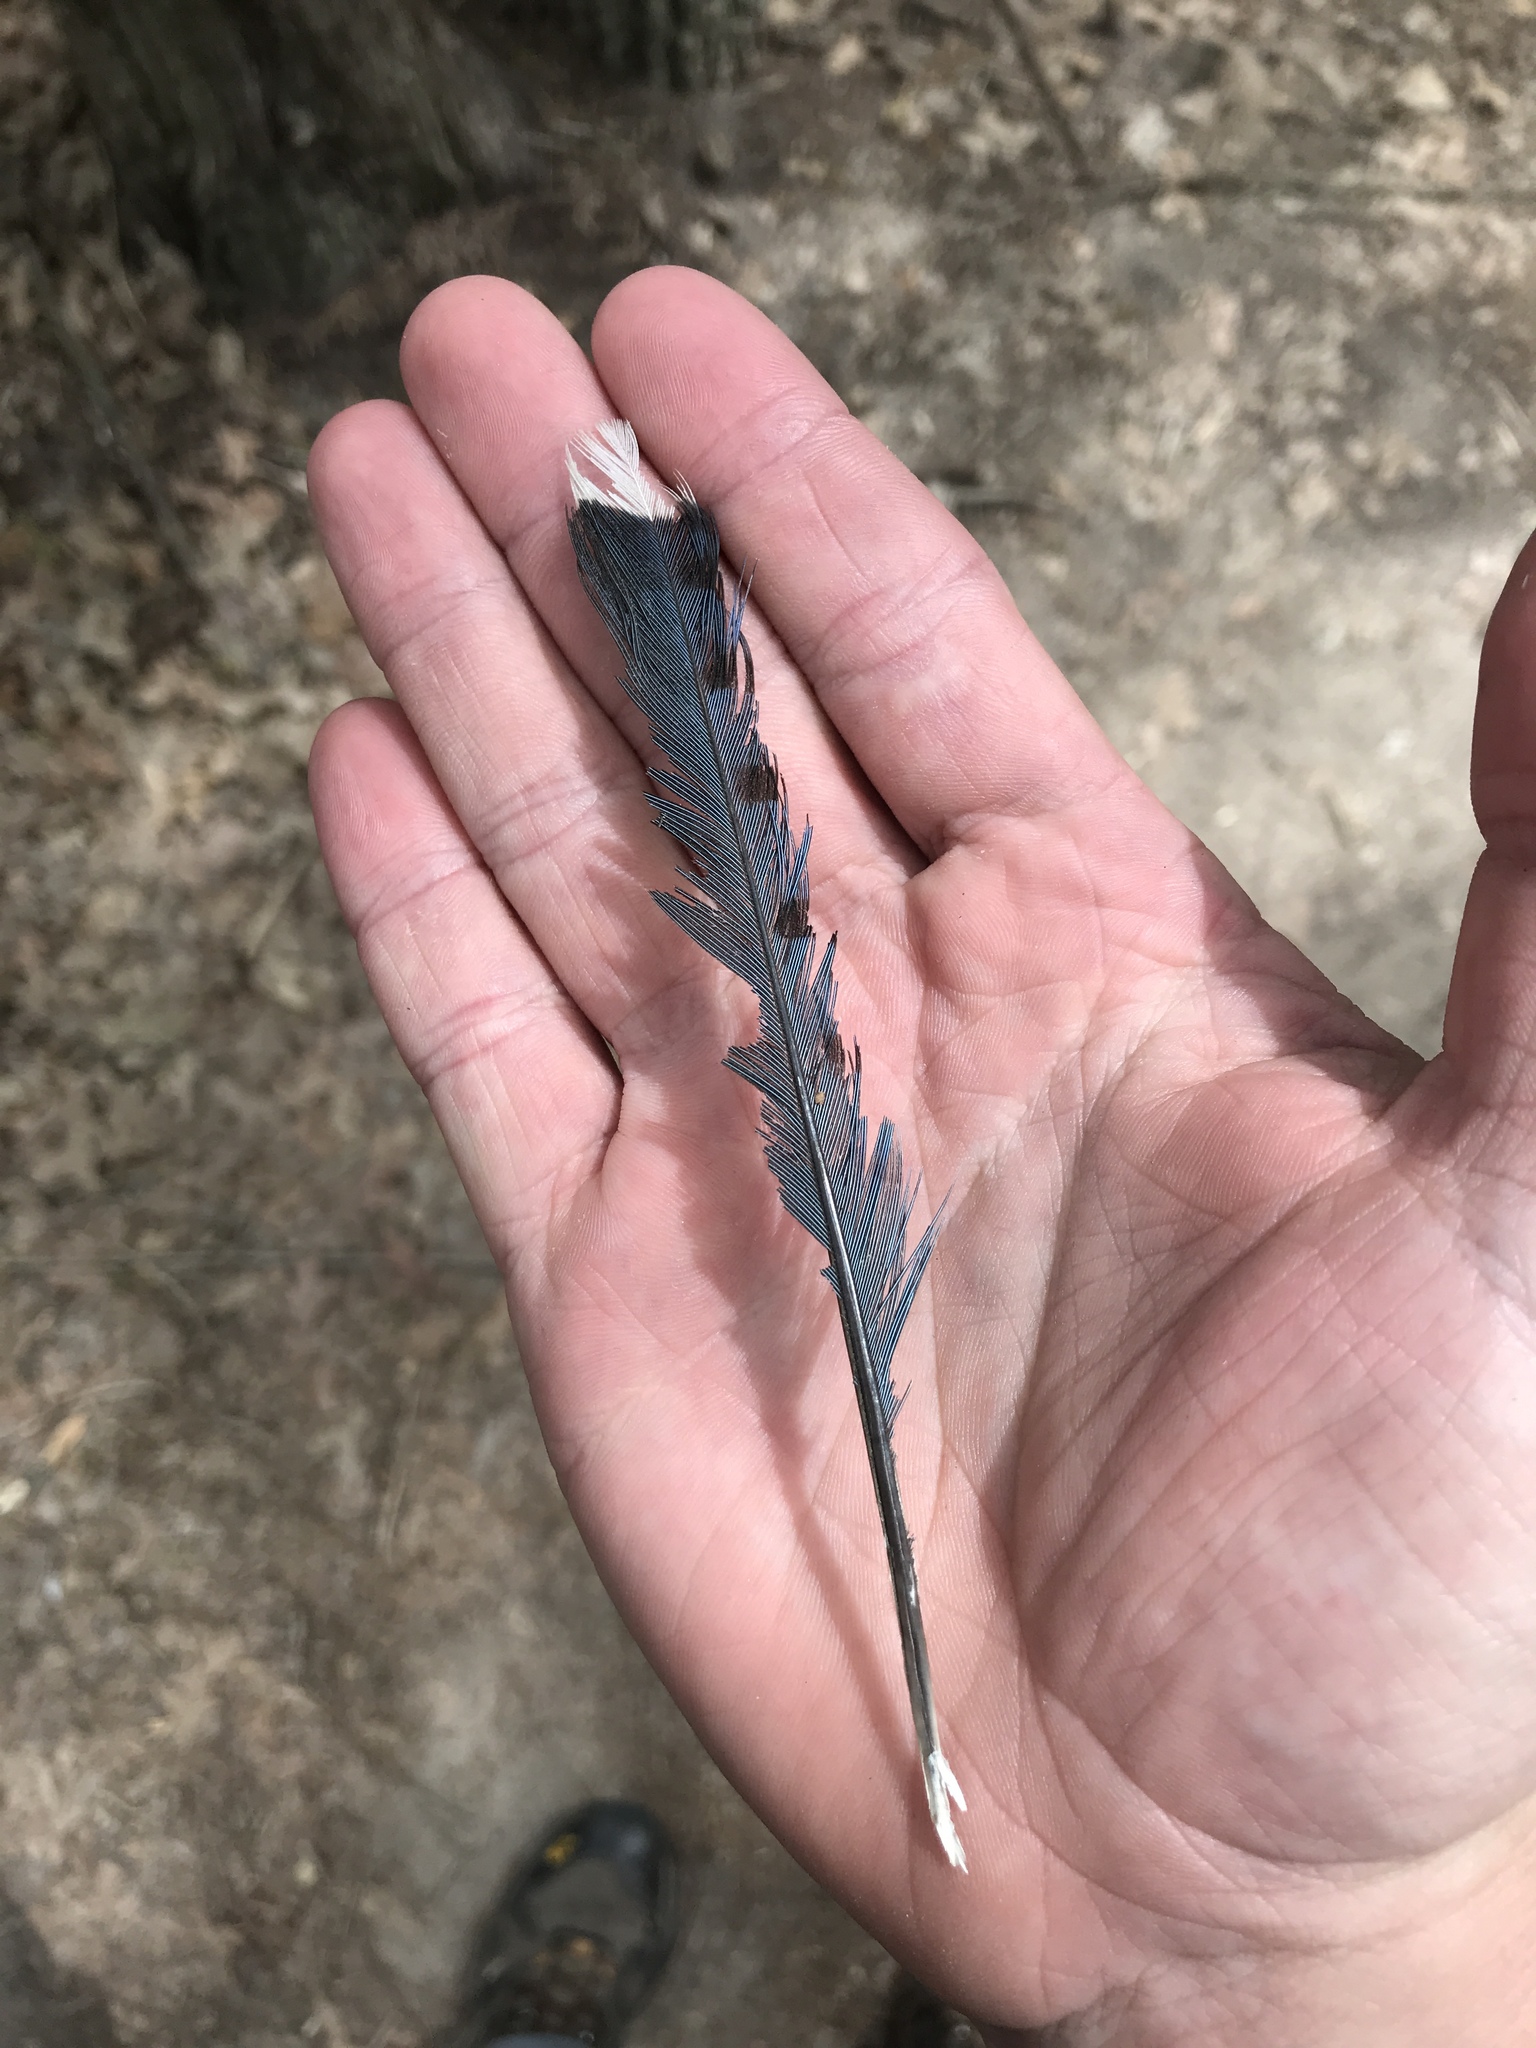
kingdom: Animalia
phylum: Chordata
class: Aves
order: Passeriformes
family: Corvidae
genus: Cyanocitta
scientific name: Cyanocitta cristata
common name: Blue jay
